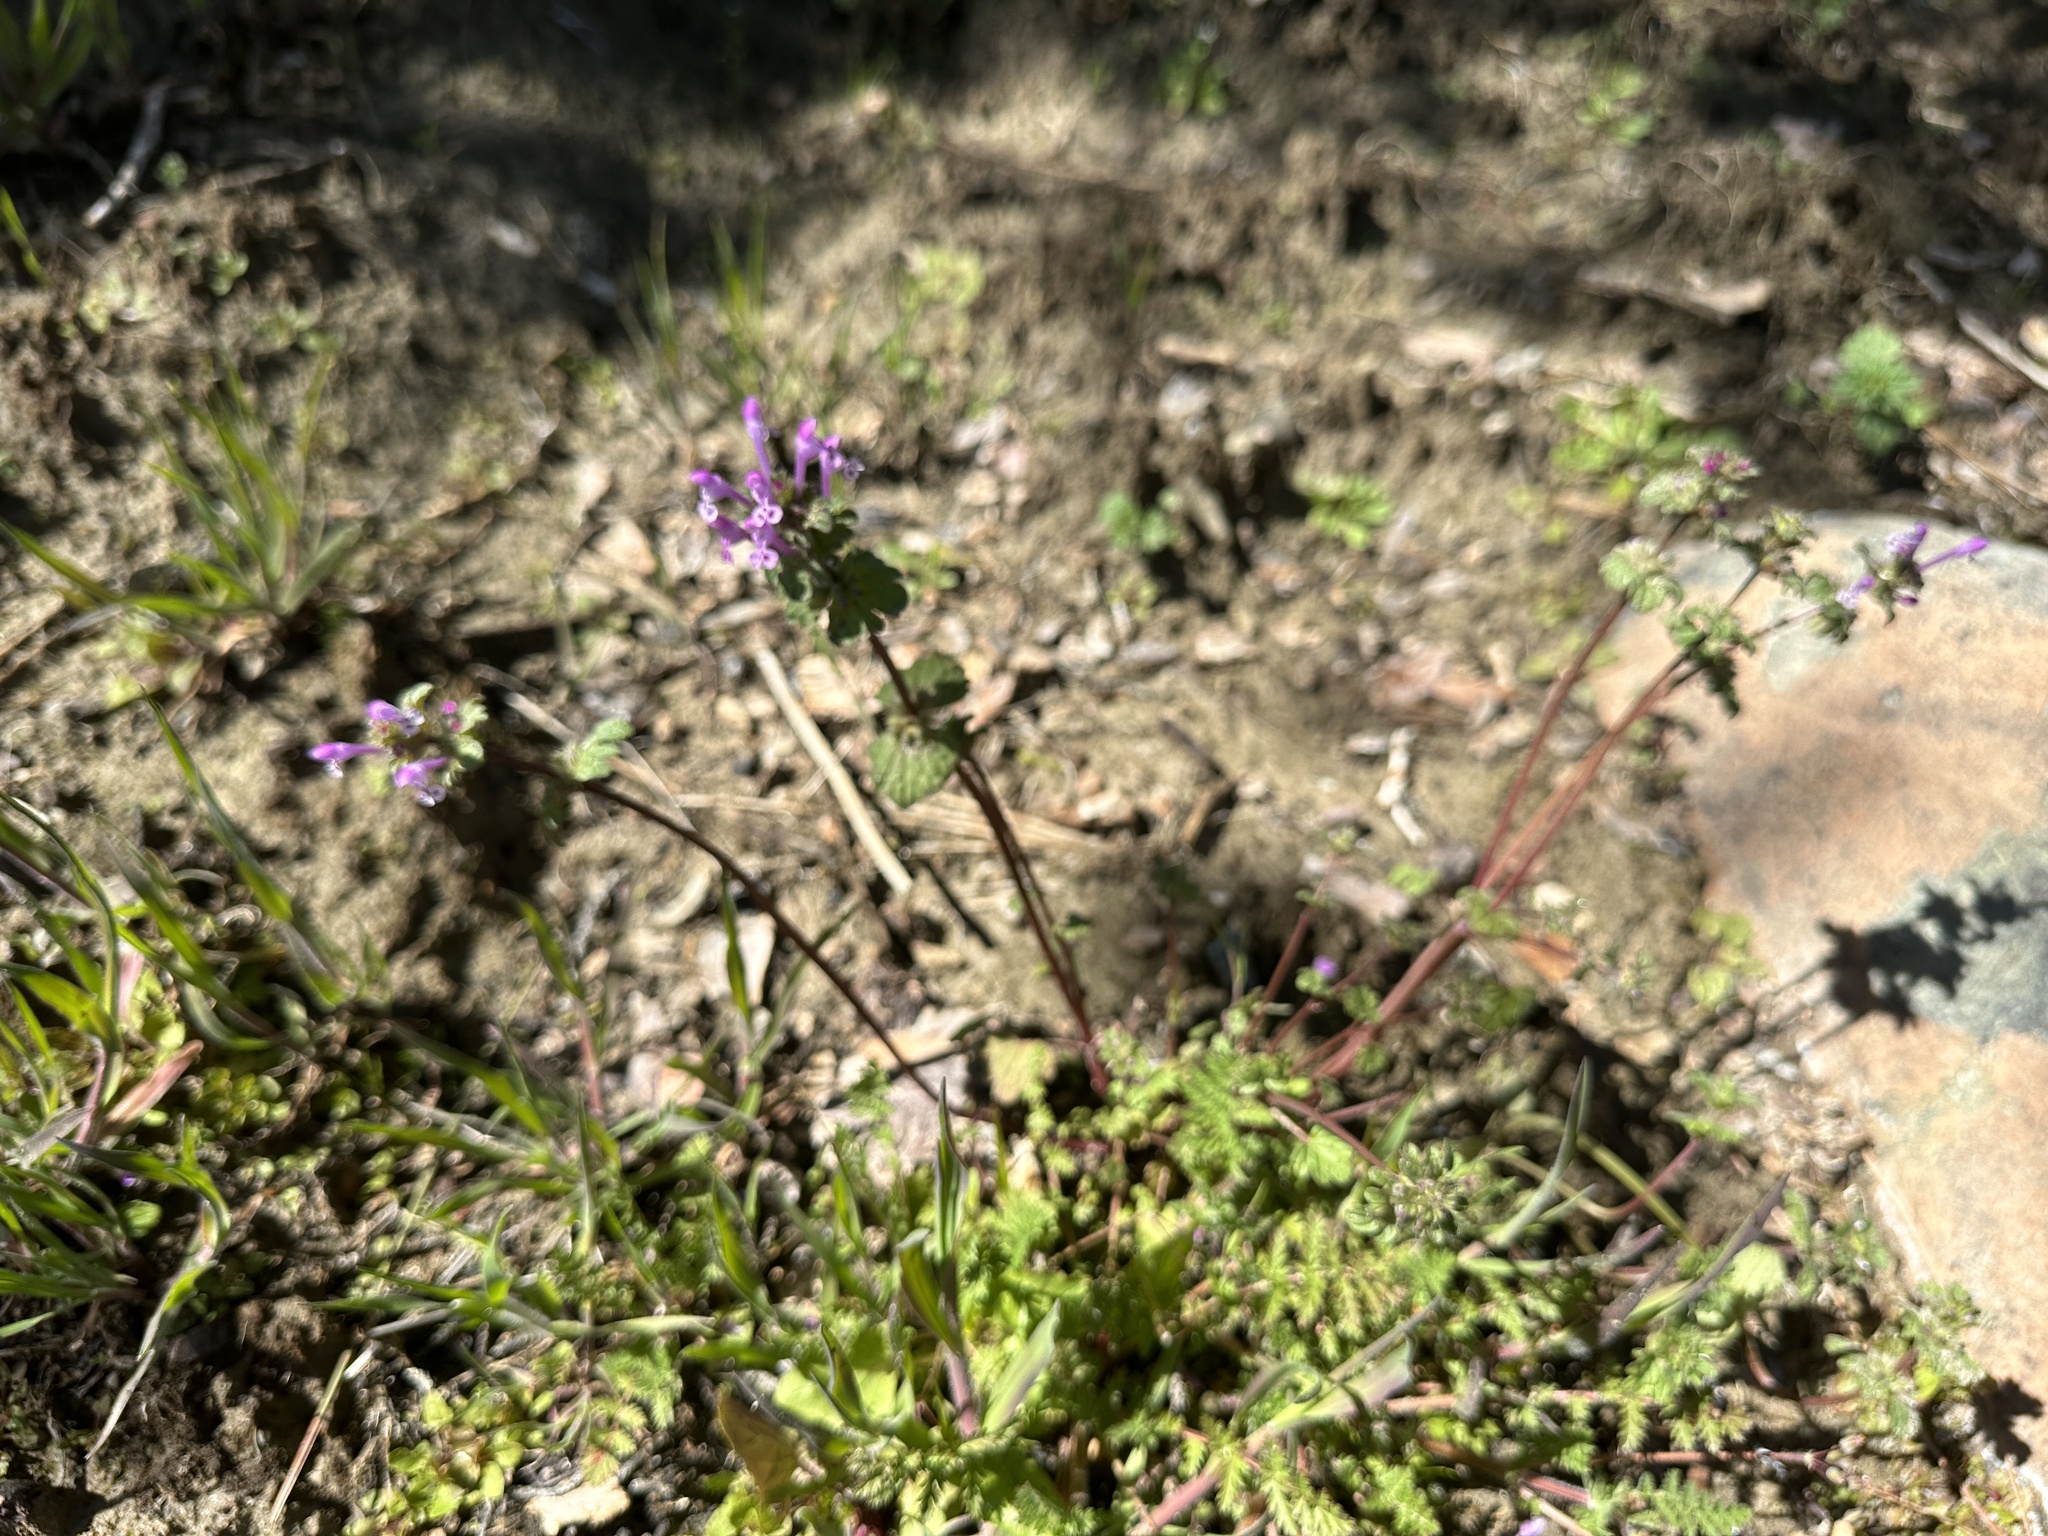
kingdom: Plantae
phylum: Tracheophyta
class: Magnoliopsida
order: Lamiales
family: Lamiaceae
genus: Lamium
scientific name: Lamium amplexicaule
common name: Henbit dead-nettle
